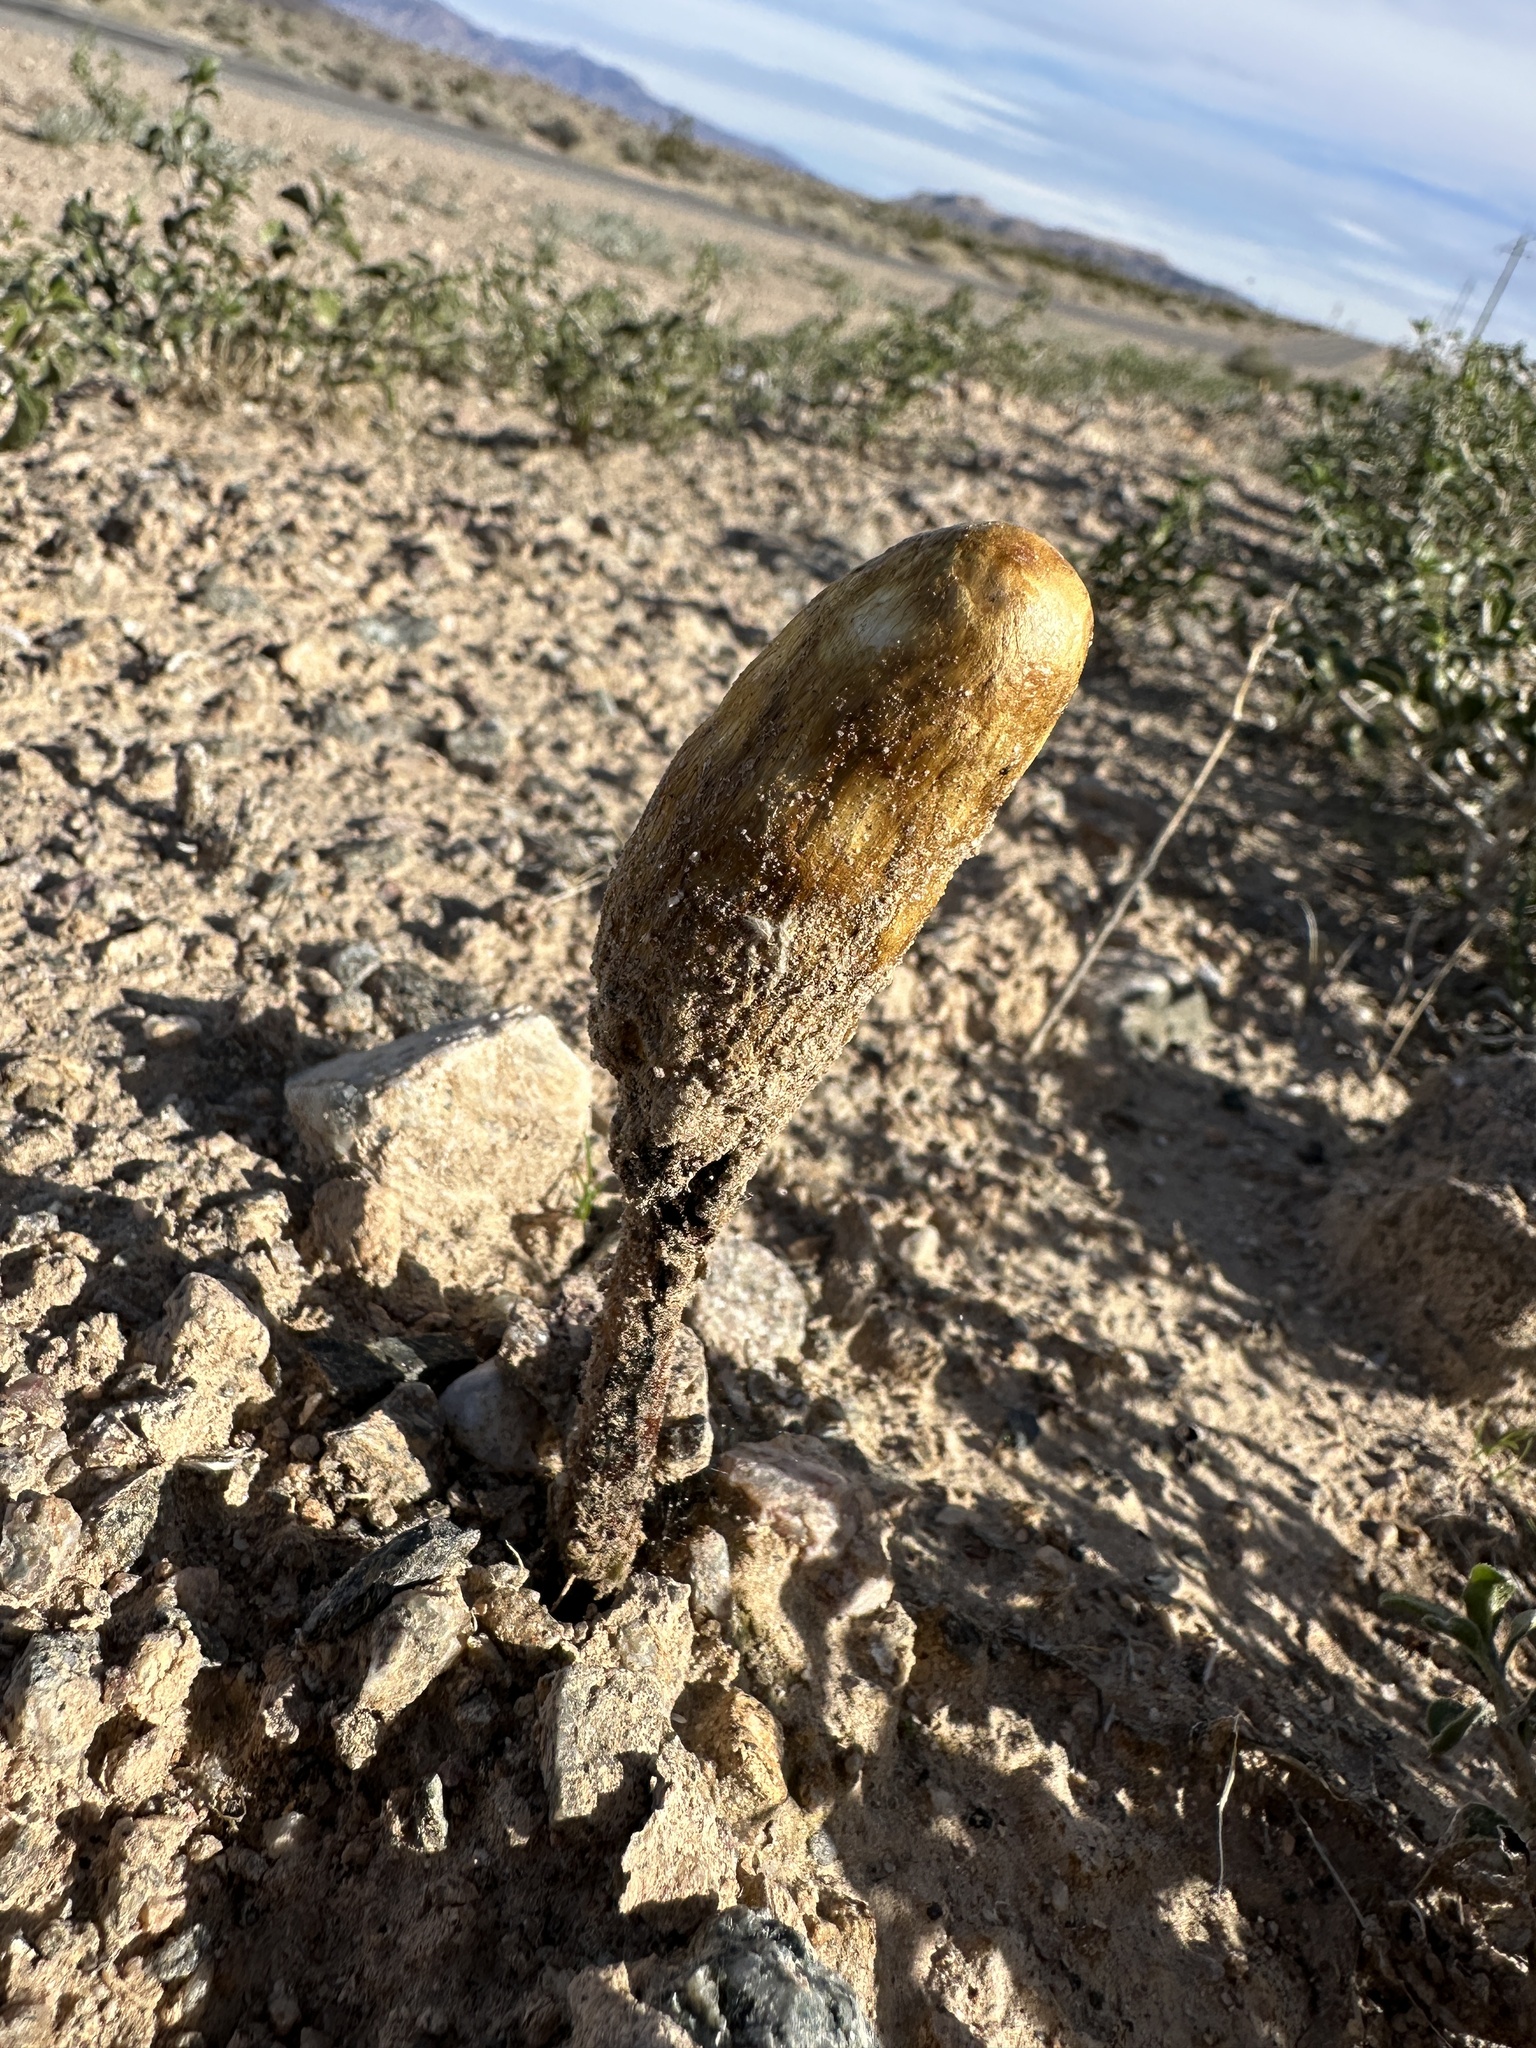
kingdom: Fungi
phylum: Basidiomycota
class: Agaricomycetes
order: Agaricales
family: Agaricaceae
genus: Podaxis
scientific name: Podaxis pistillaris
